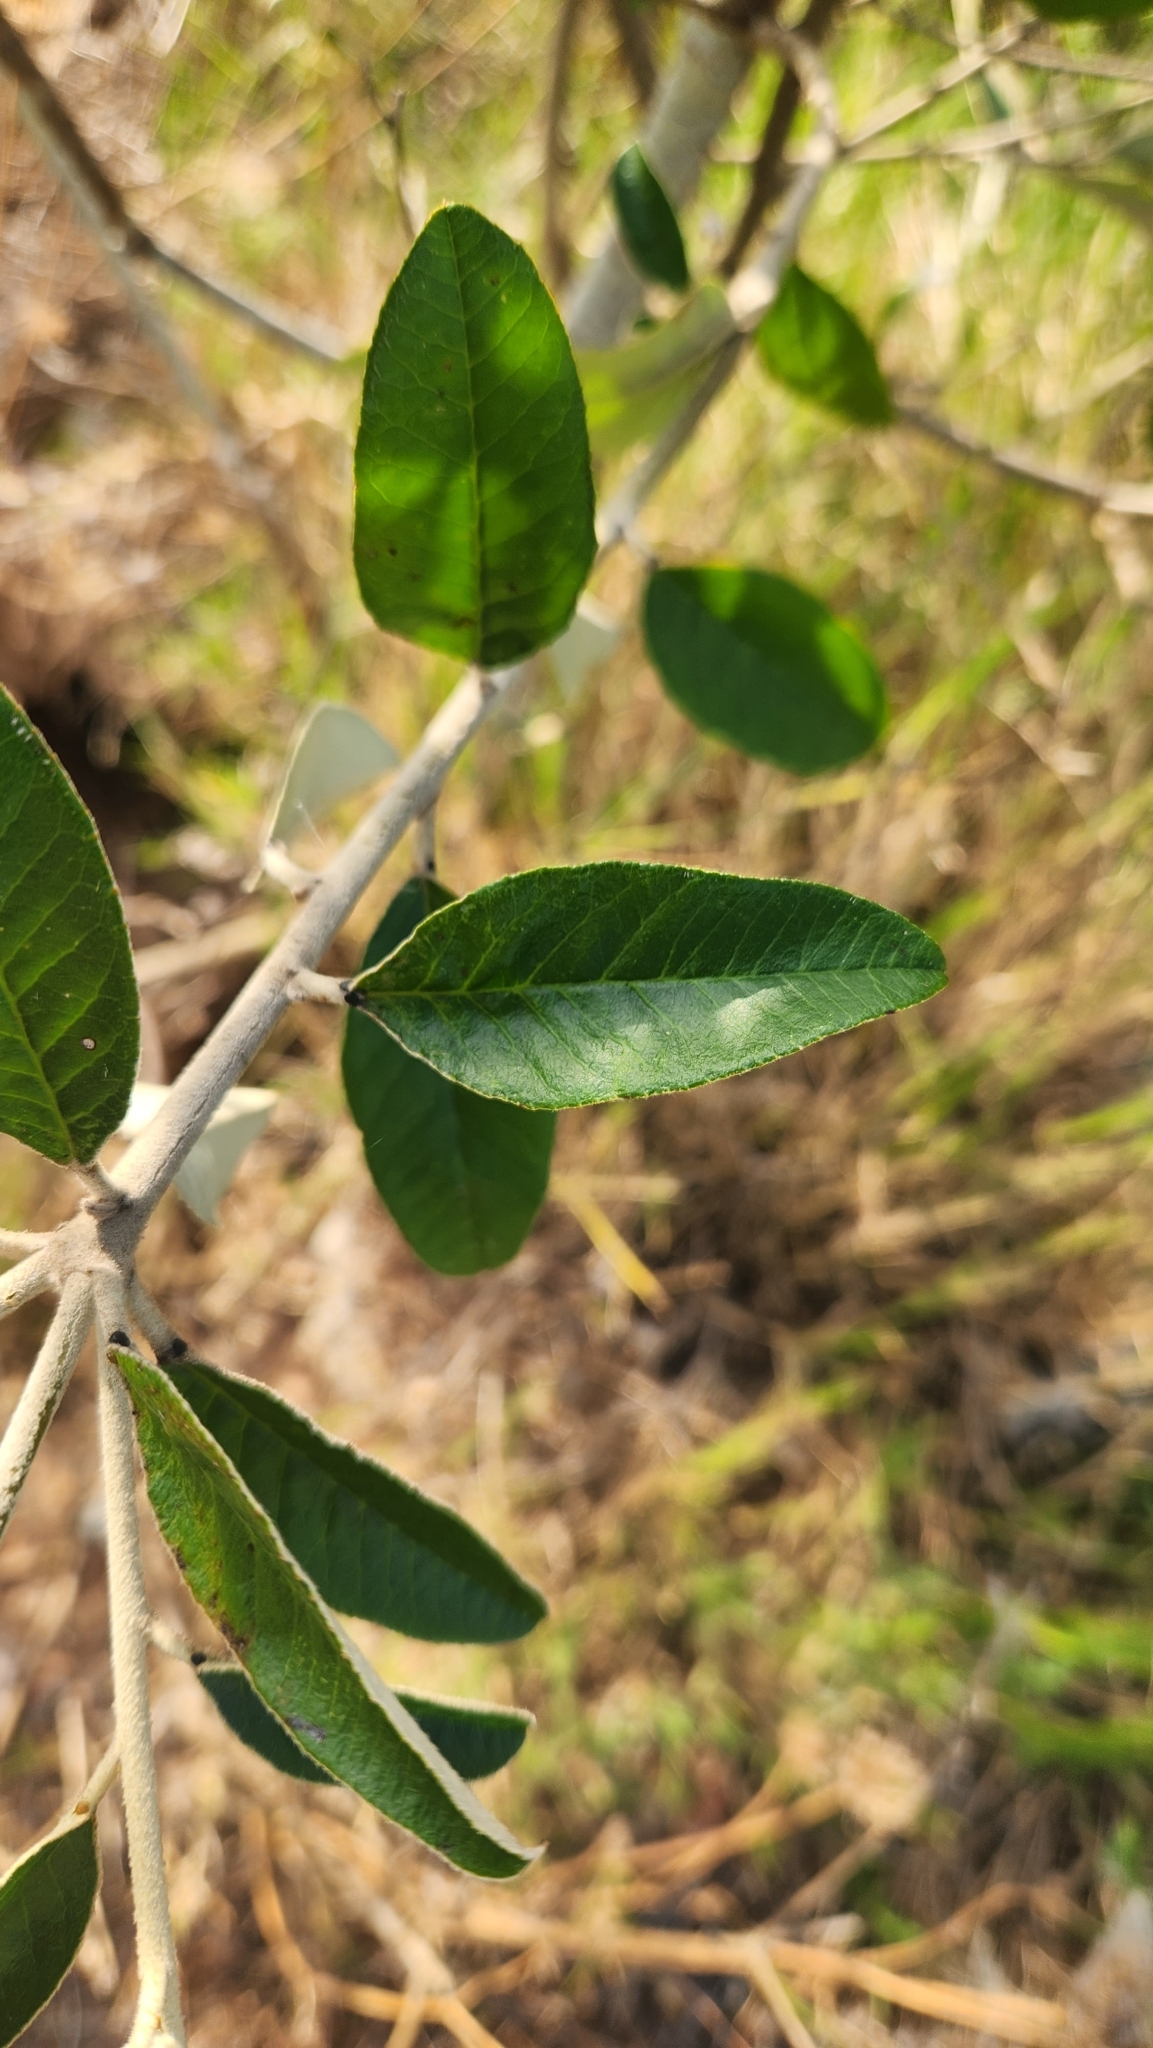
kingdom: Plantae
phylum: Tracheophyta
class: Magnoliopsida
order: Malpighiales
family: Euphorbiaceae
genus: Croton
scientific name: Croton hilarii
